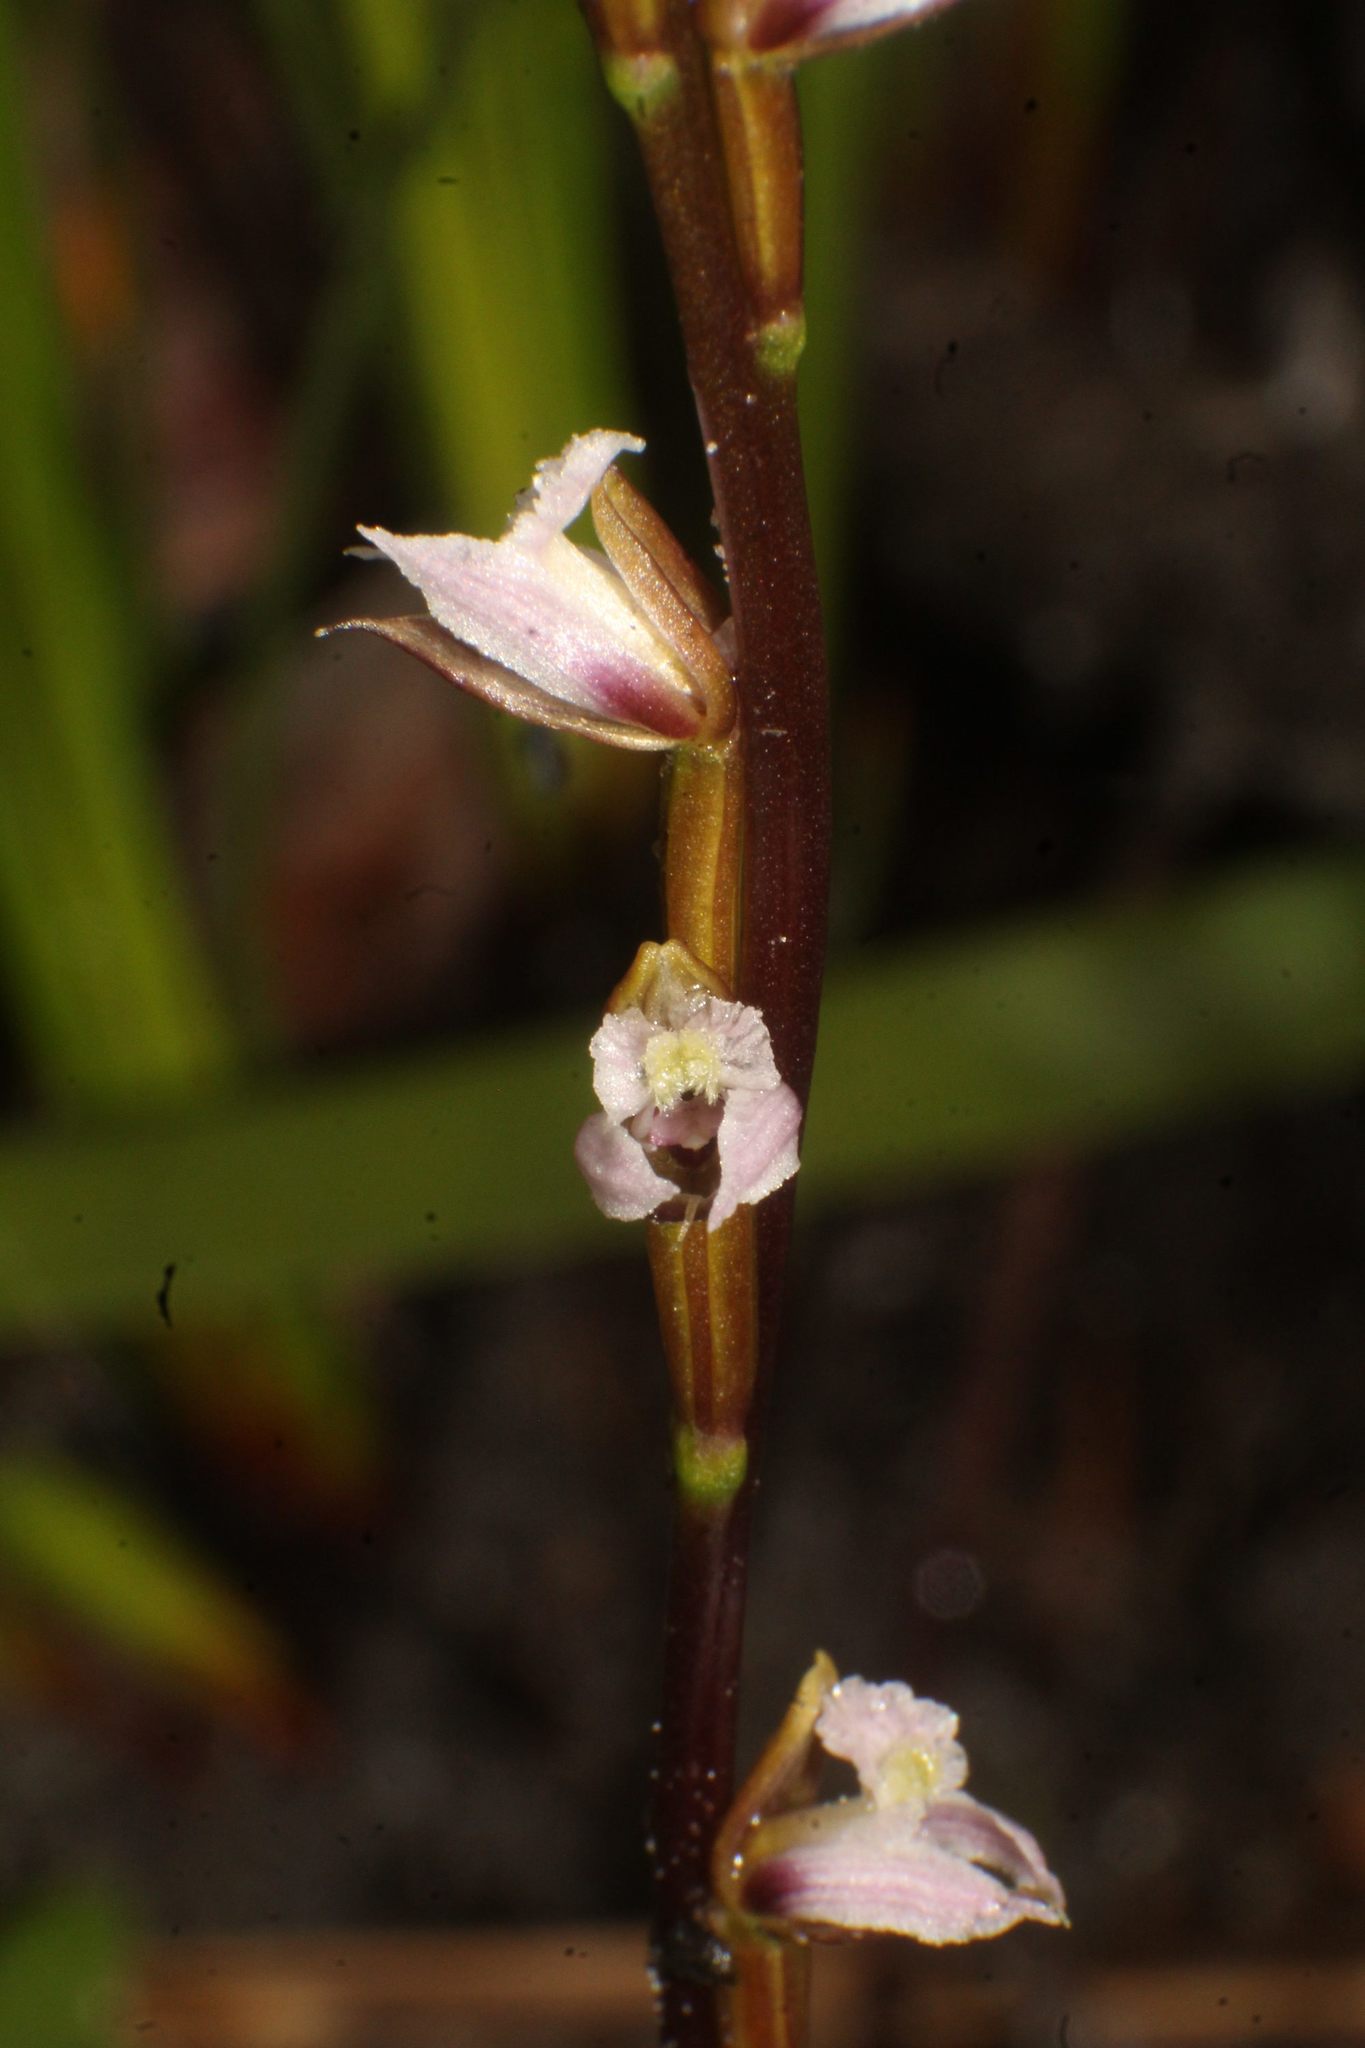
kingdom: Plantae
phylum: Tracheophyta
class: Liliopsida
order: Asparagales
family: Orchidaceae
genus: Prasophyllum
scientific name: Prasophyllum hians
